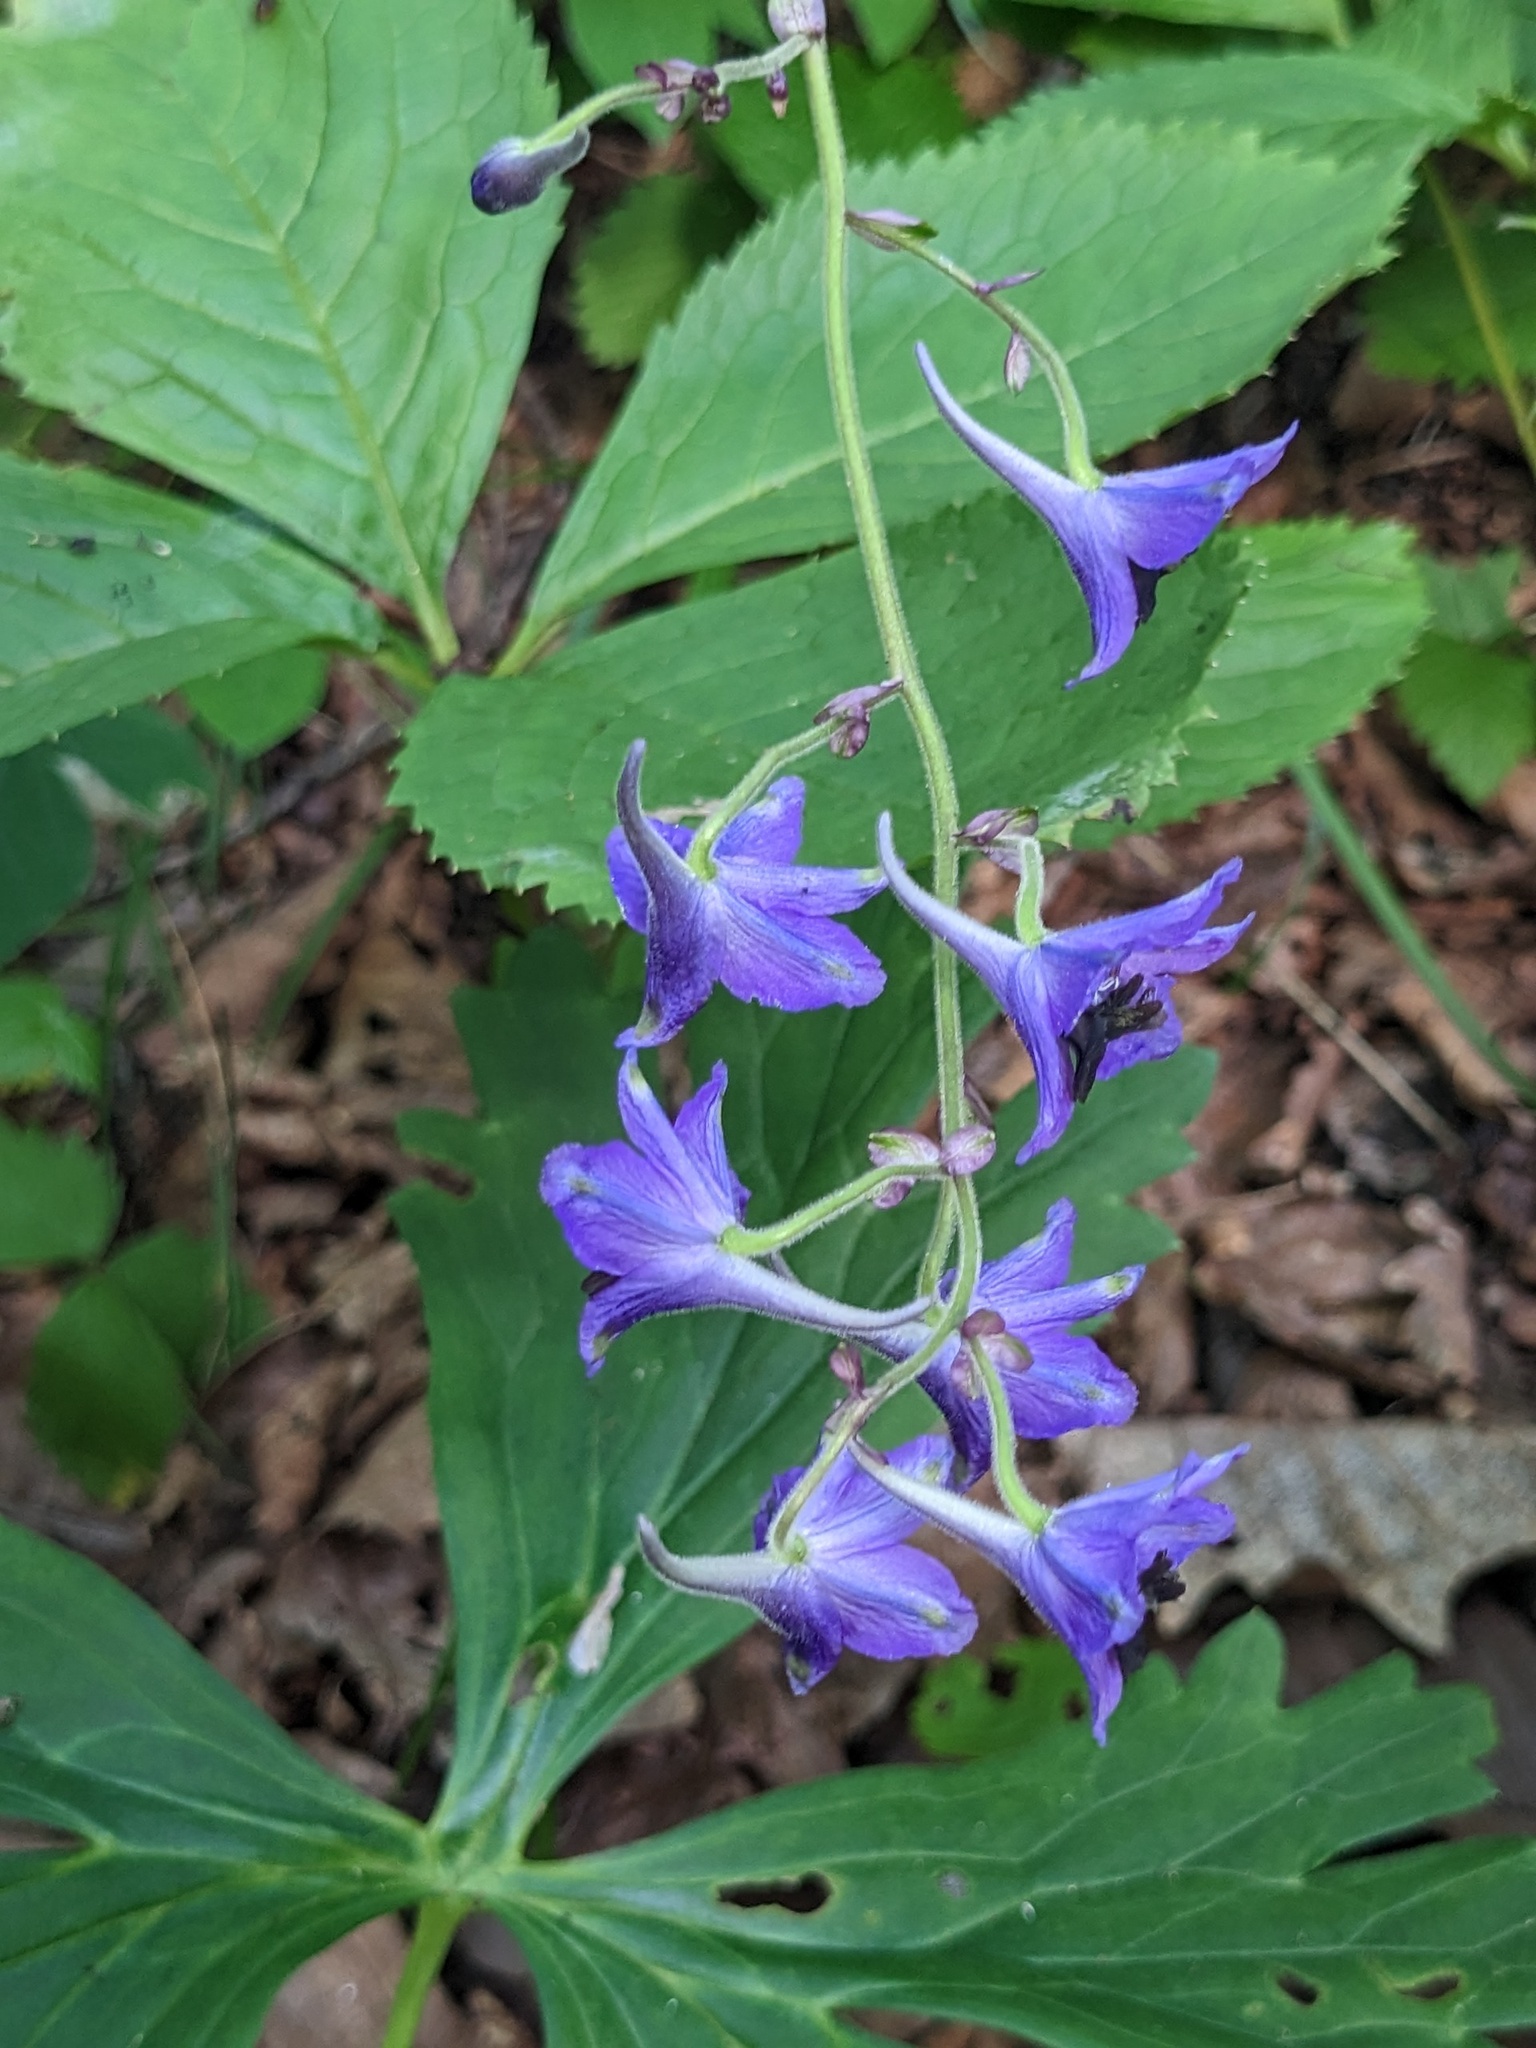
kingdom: Plantae
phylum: Tracheophyta
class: Magnoliopsida
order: Ranunculales
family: Ranunculaceae
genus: Delphinium
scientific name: Delphinium maackianum
